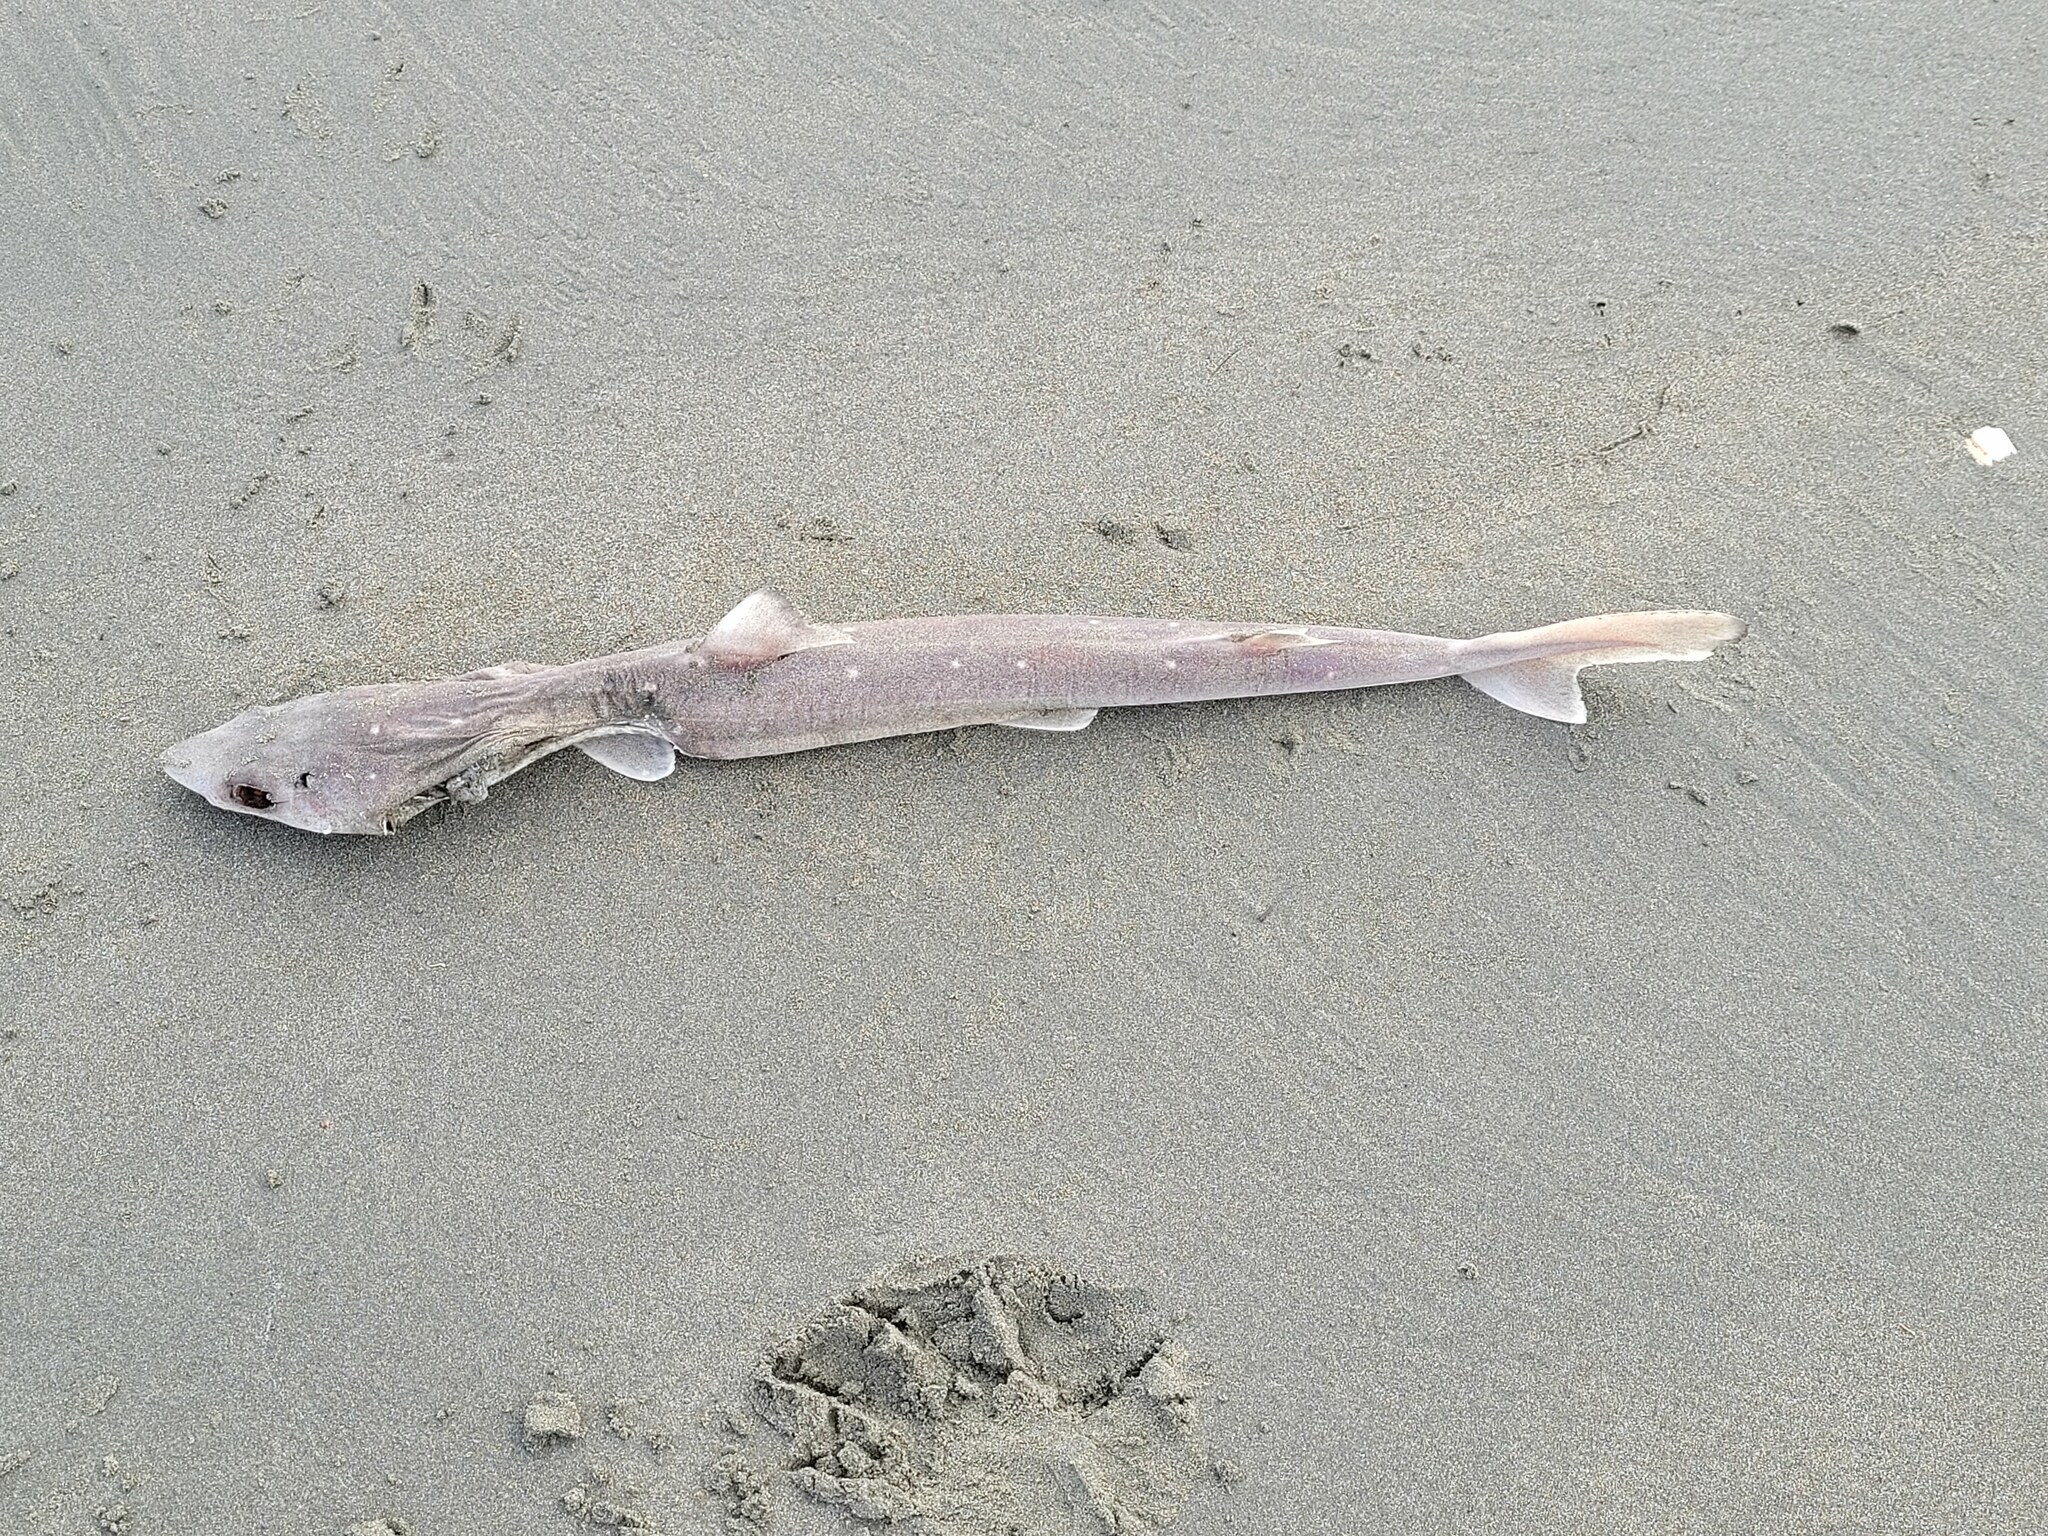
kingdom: Animalia
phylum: Chordata
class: Elasmobranchii
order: Squaliformes
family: Squalidae
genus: Squalus
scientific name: Squalus acanthias
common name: Spurdog
